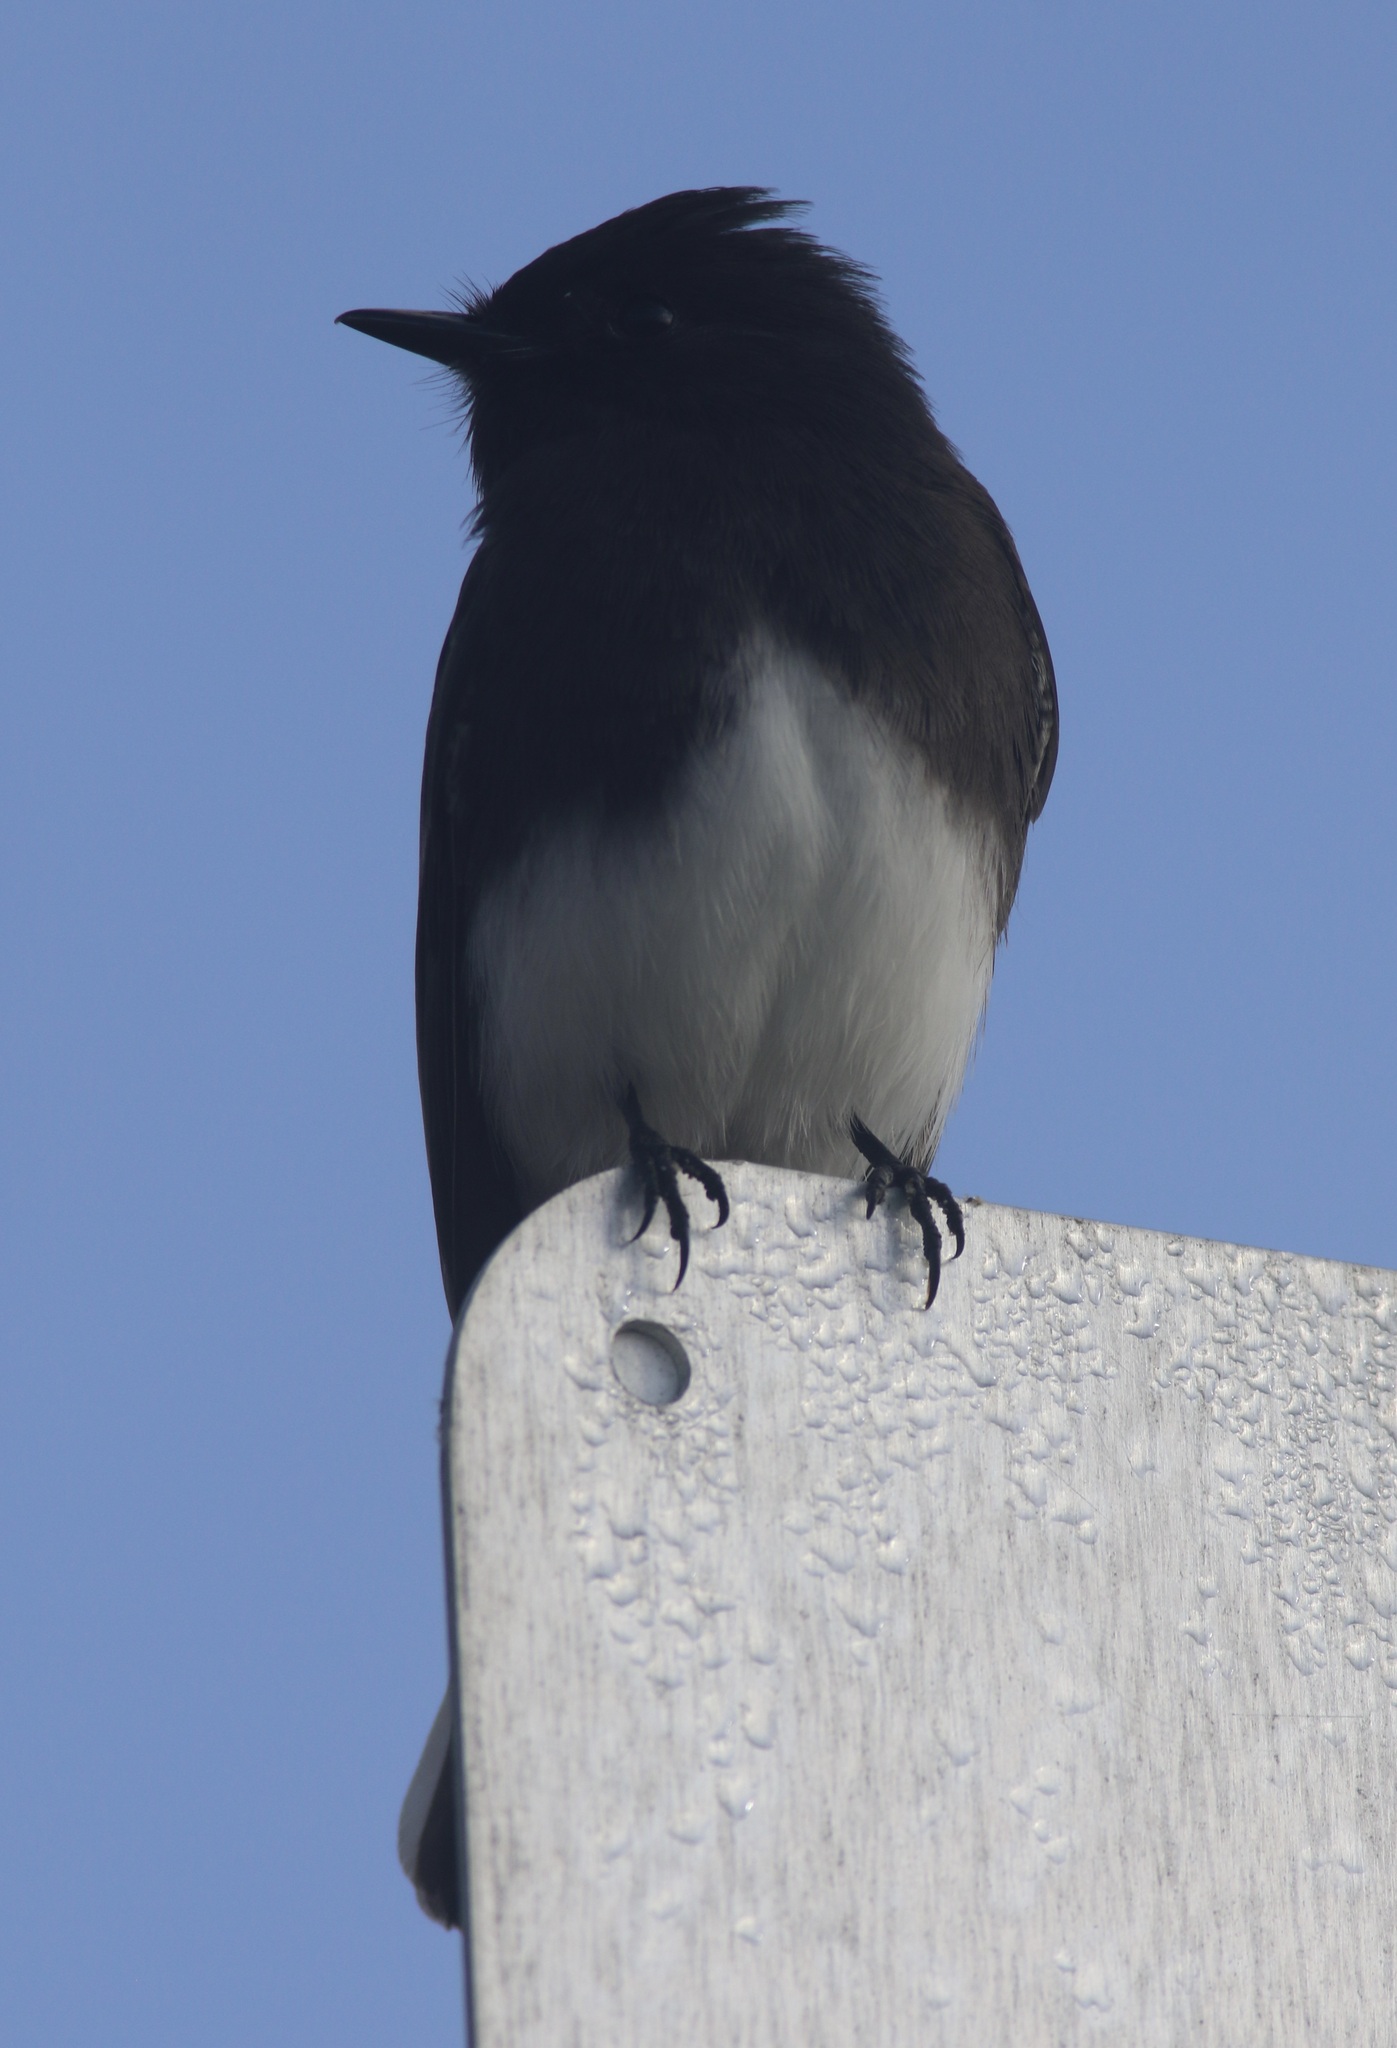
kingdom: Animalia
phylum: Chordata
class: Aves
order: Passeriformes
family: Tyrannidae
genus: Sayornis
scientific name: Sayornis nigricans
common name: Black phoebe
